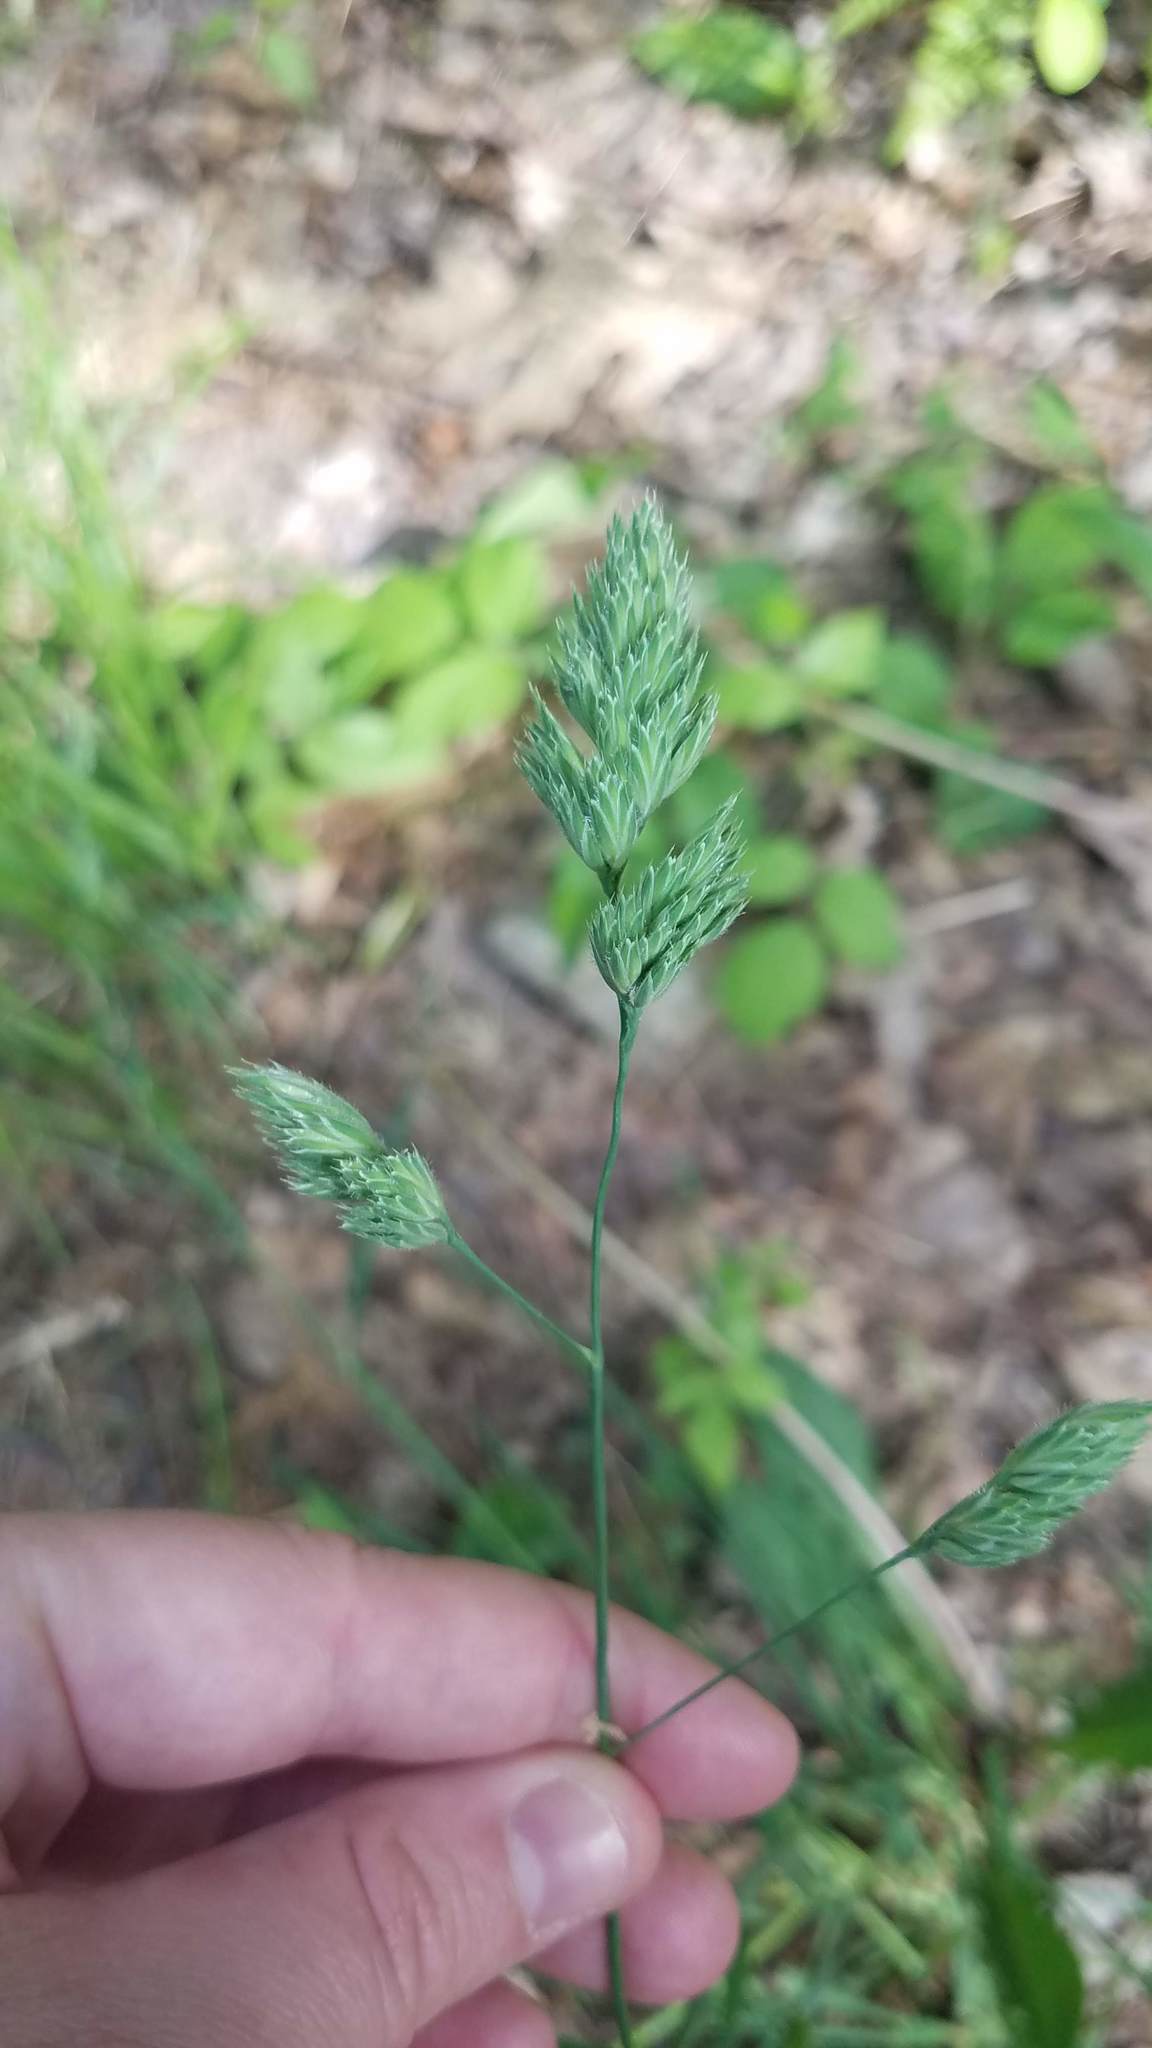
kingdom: Plantae
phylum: Tracheophyta
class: Liliopsida
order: Poales
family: Poaceae
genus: Dactylis
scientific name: Dactylis glomerata
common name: Orchardgrass
